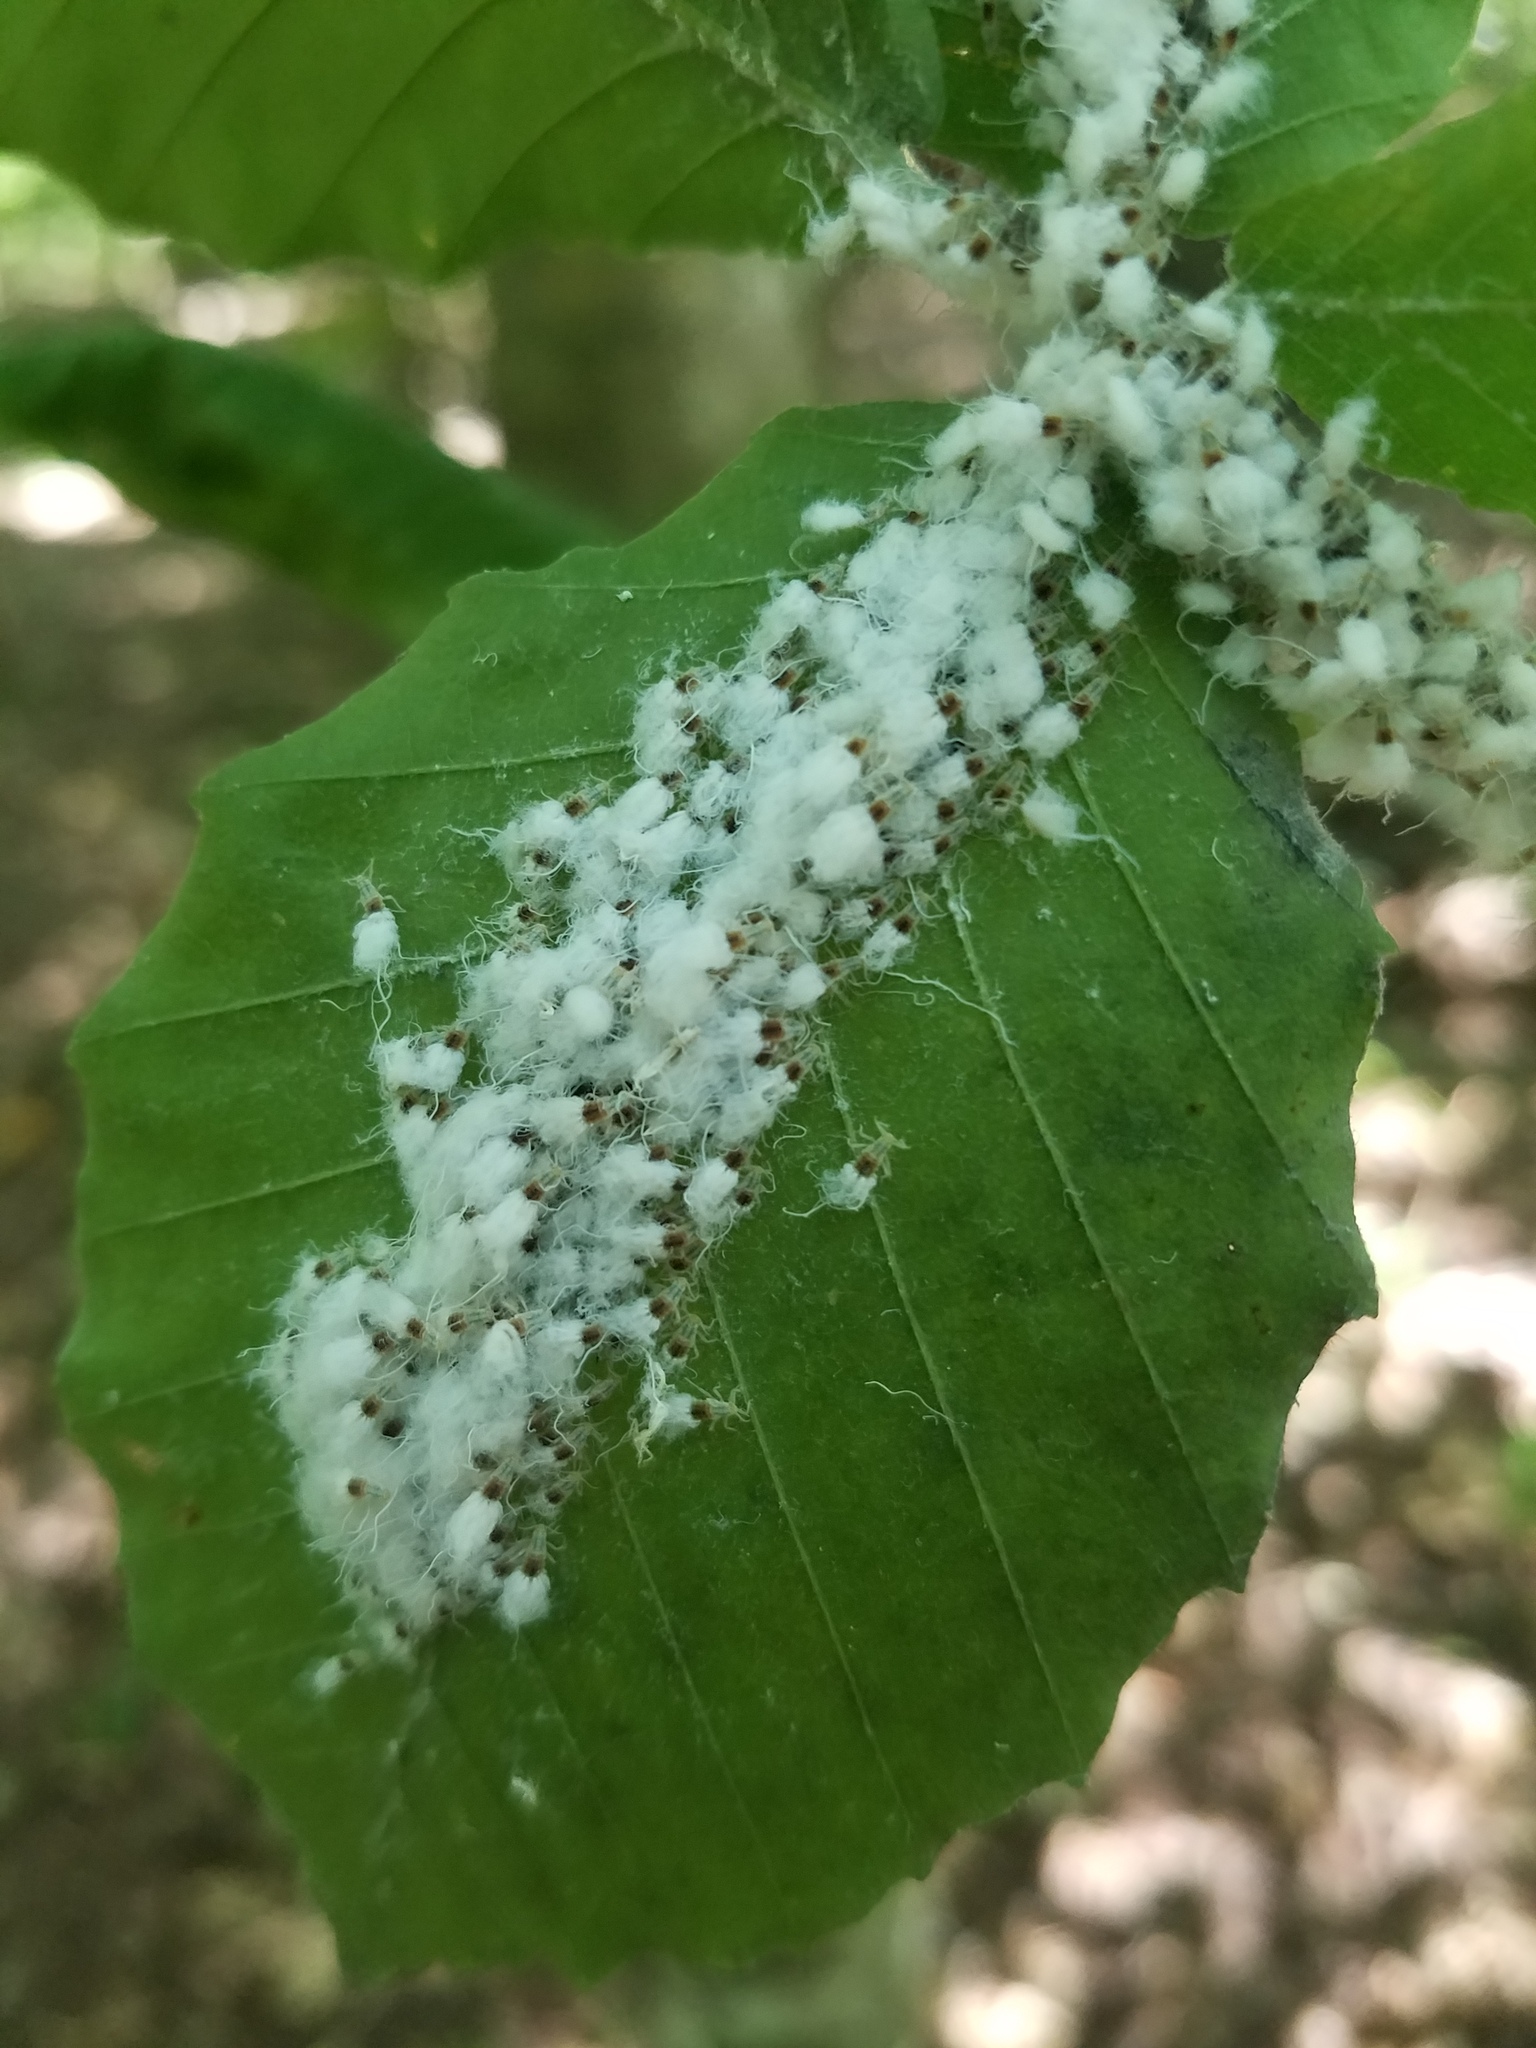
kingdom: Animalia
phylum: Arthropoda
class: Insecta
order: Hemiptera
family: Aphididae
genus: Grylloprociphilus
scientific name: Grylloprociphilus imbricator
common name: Beech blight aphid
